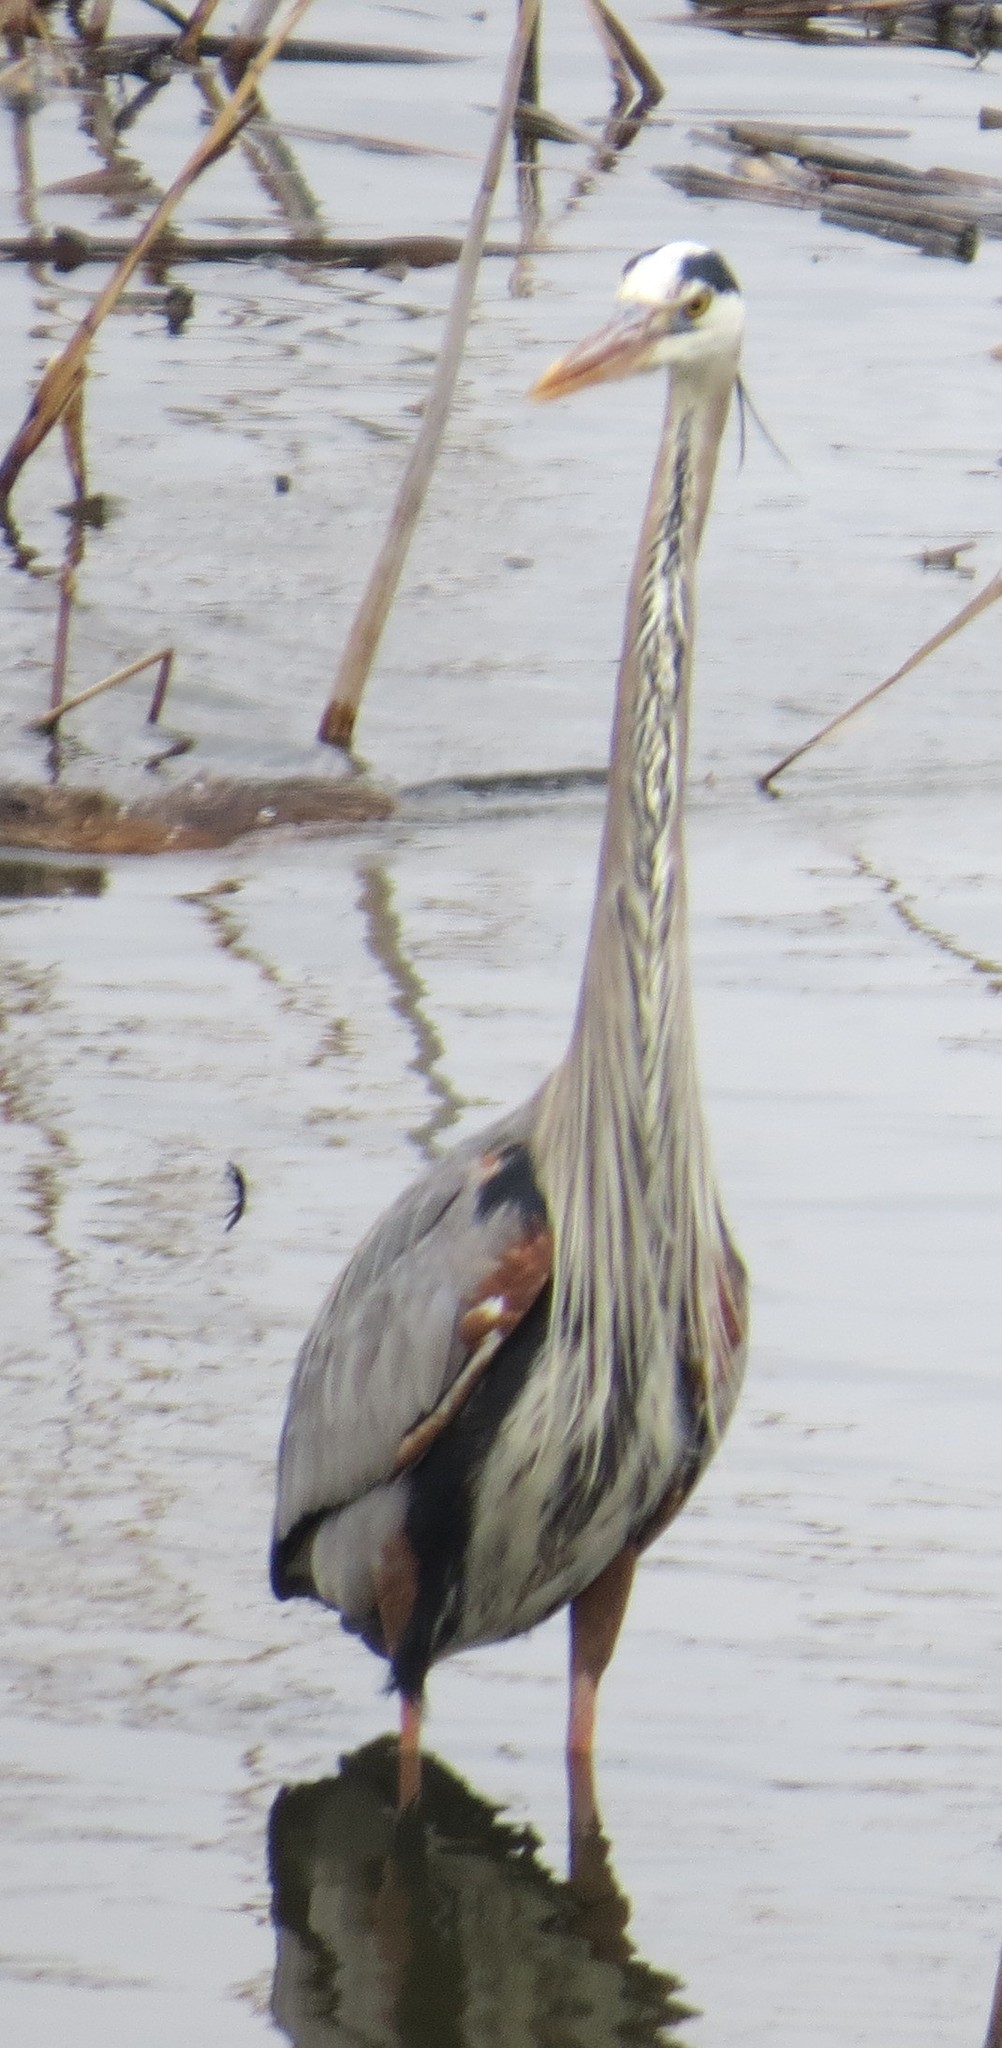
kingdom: Animalia
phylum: Chordata
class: Aves
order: Pelecaniformes
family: Ardeidae
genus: Ardea
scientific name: Ardea herodias
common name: Great blue heron
